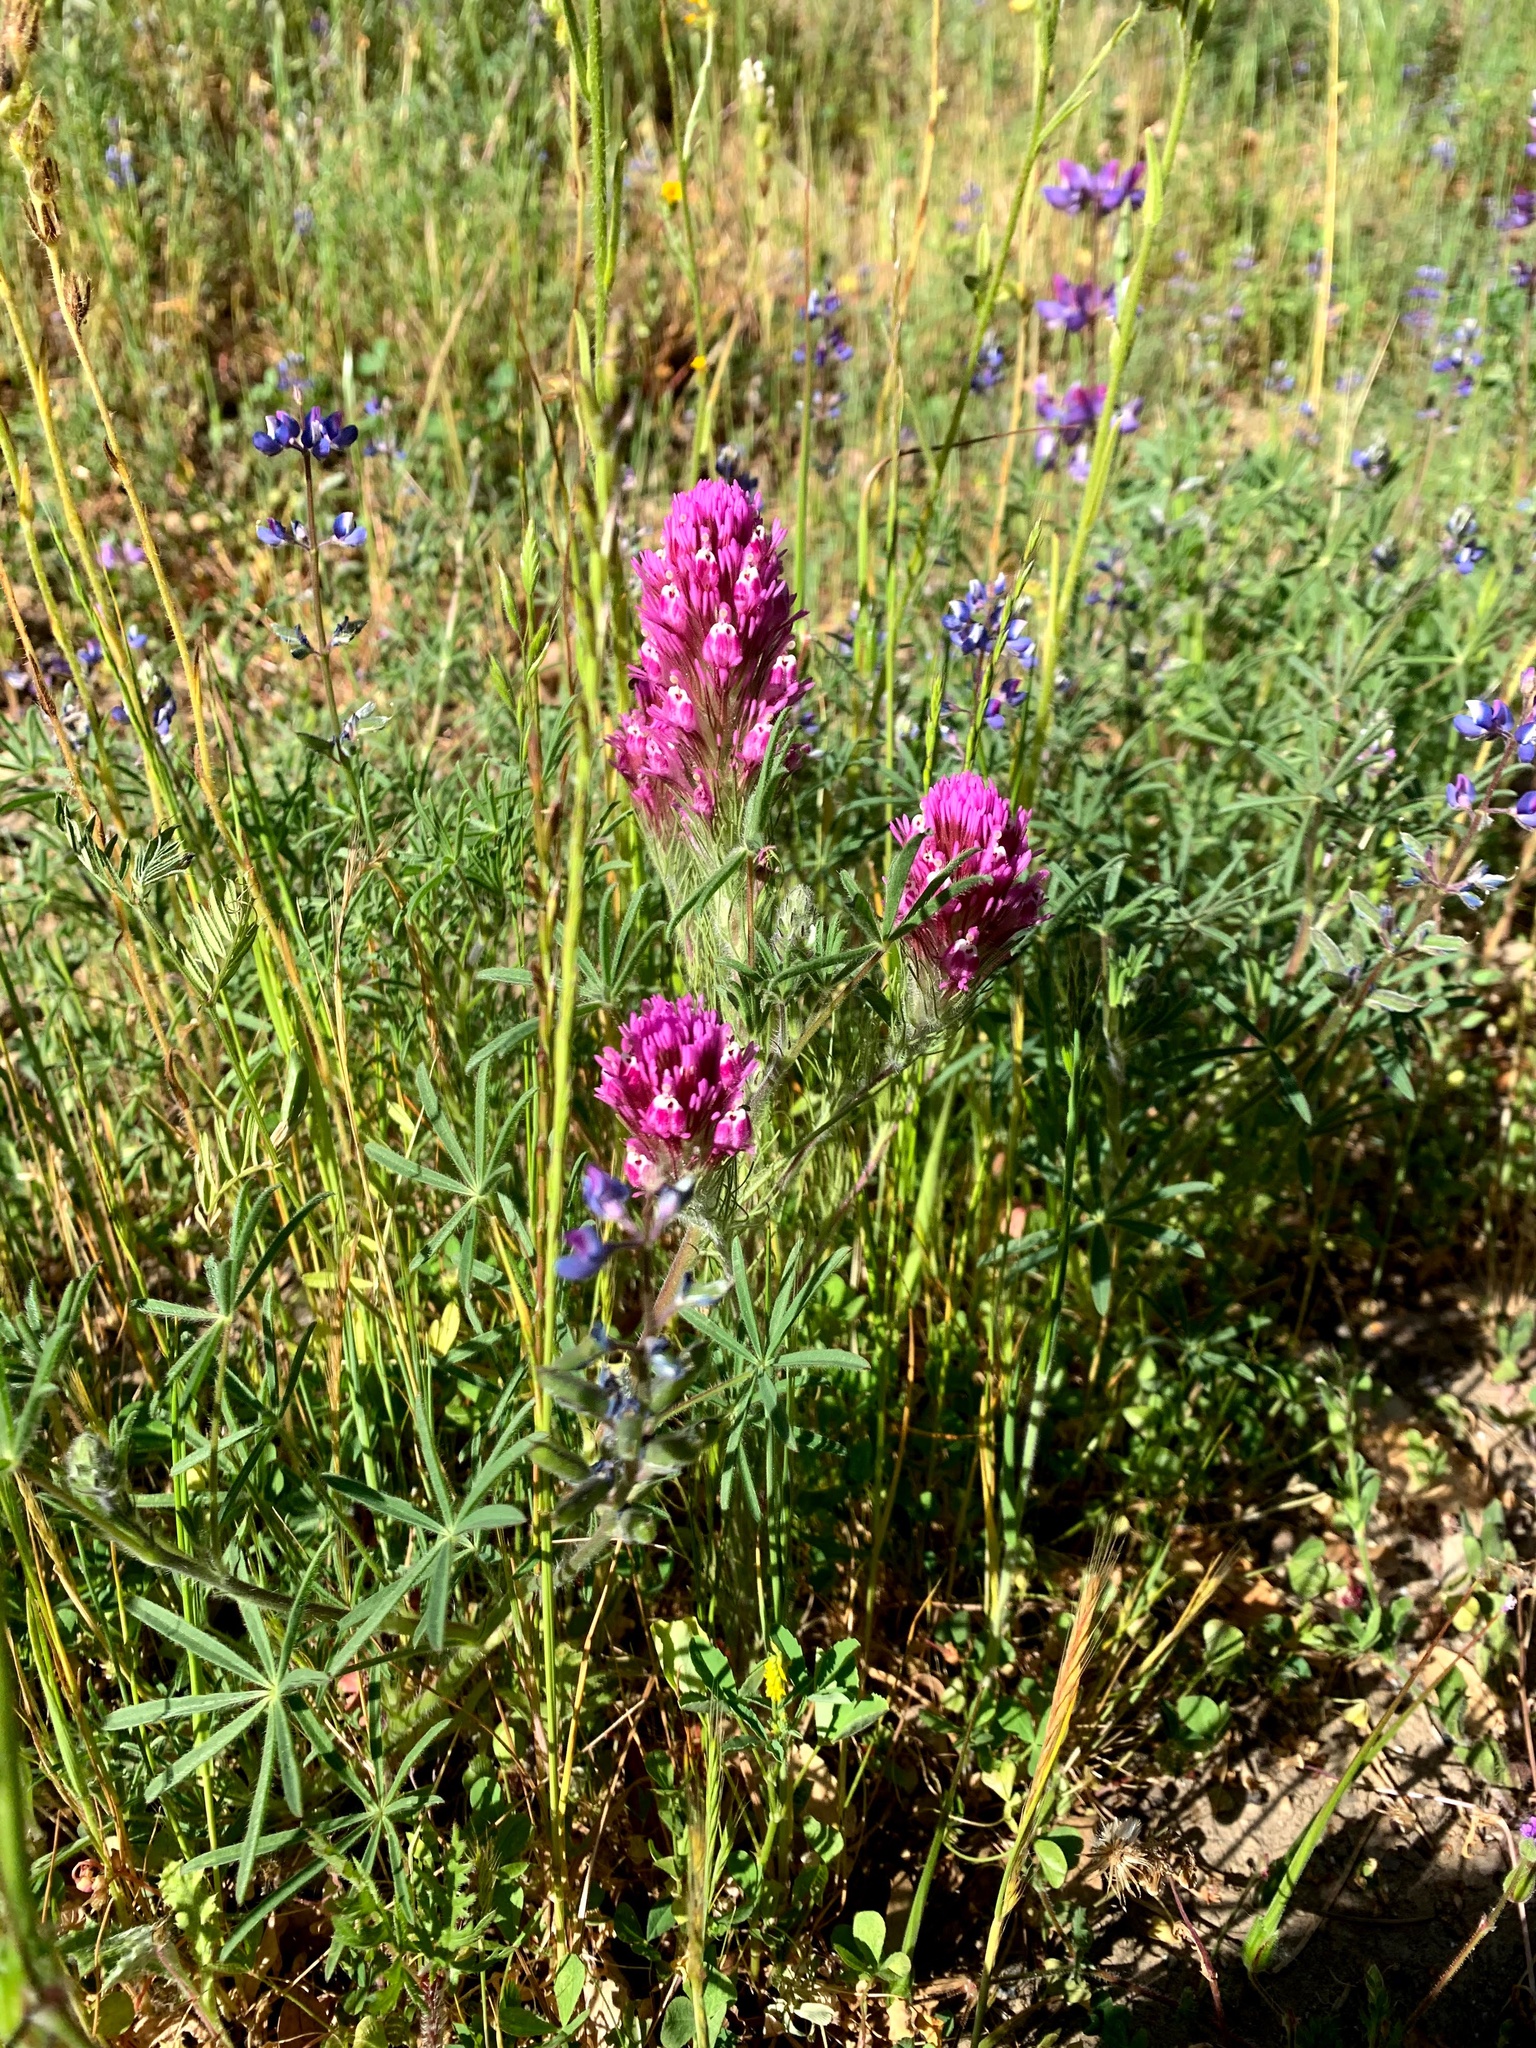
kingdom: Plantae
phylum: Tracheophyta
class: Magnoliopsida
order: Lamiales
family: Orobanchaceae
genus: Castilleja
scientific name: Castilleja exserta
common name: Purple owl-clover
